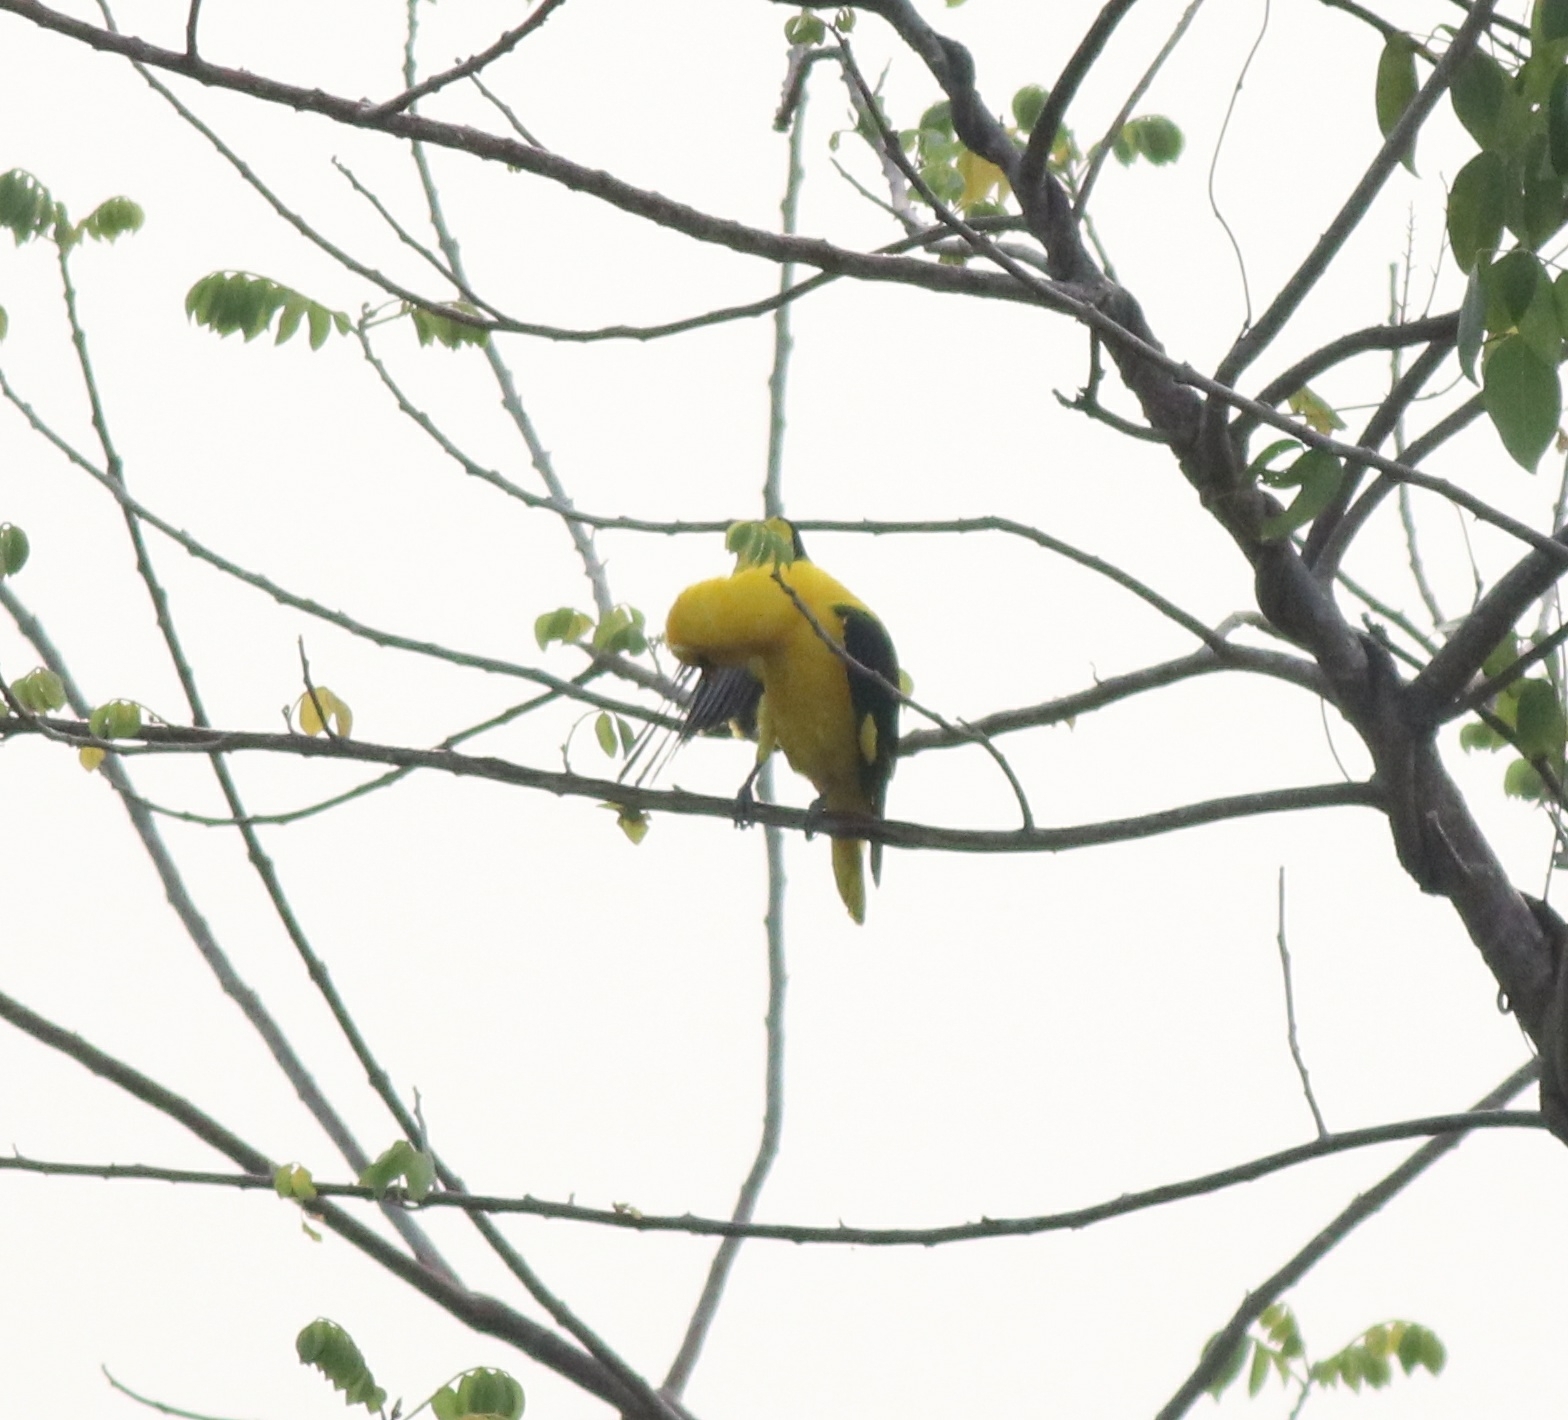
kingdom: Animalia
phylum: Chordata
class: Aves
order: Passeriformes
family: Oriolidae
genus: Oriolus
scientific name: Oriolus kundoo
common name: Indian golden oriole
